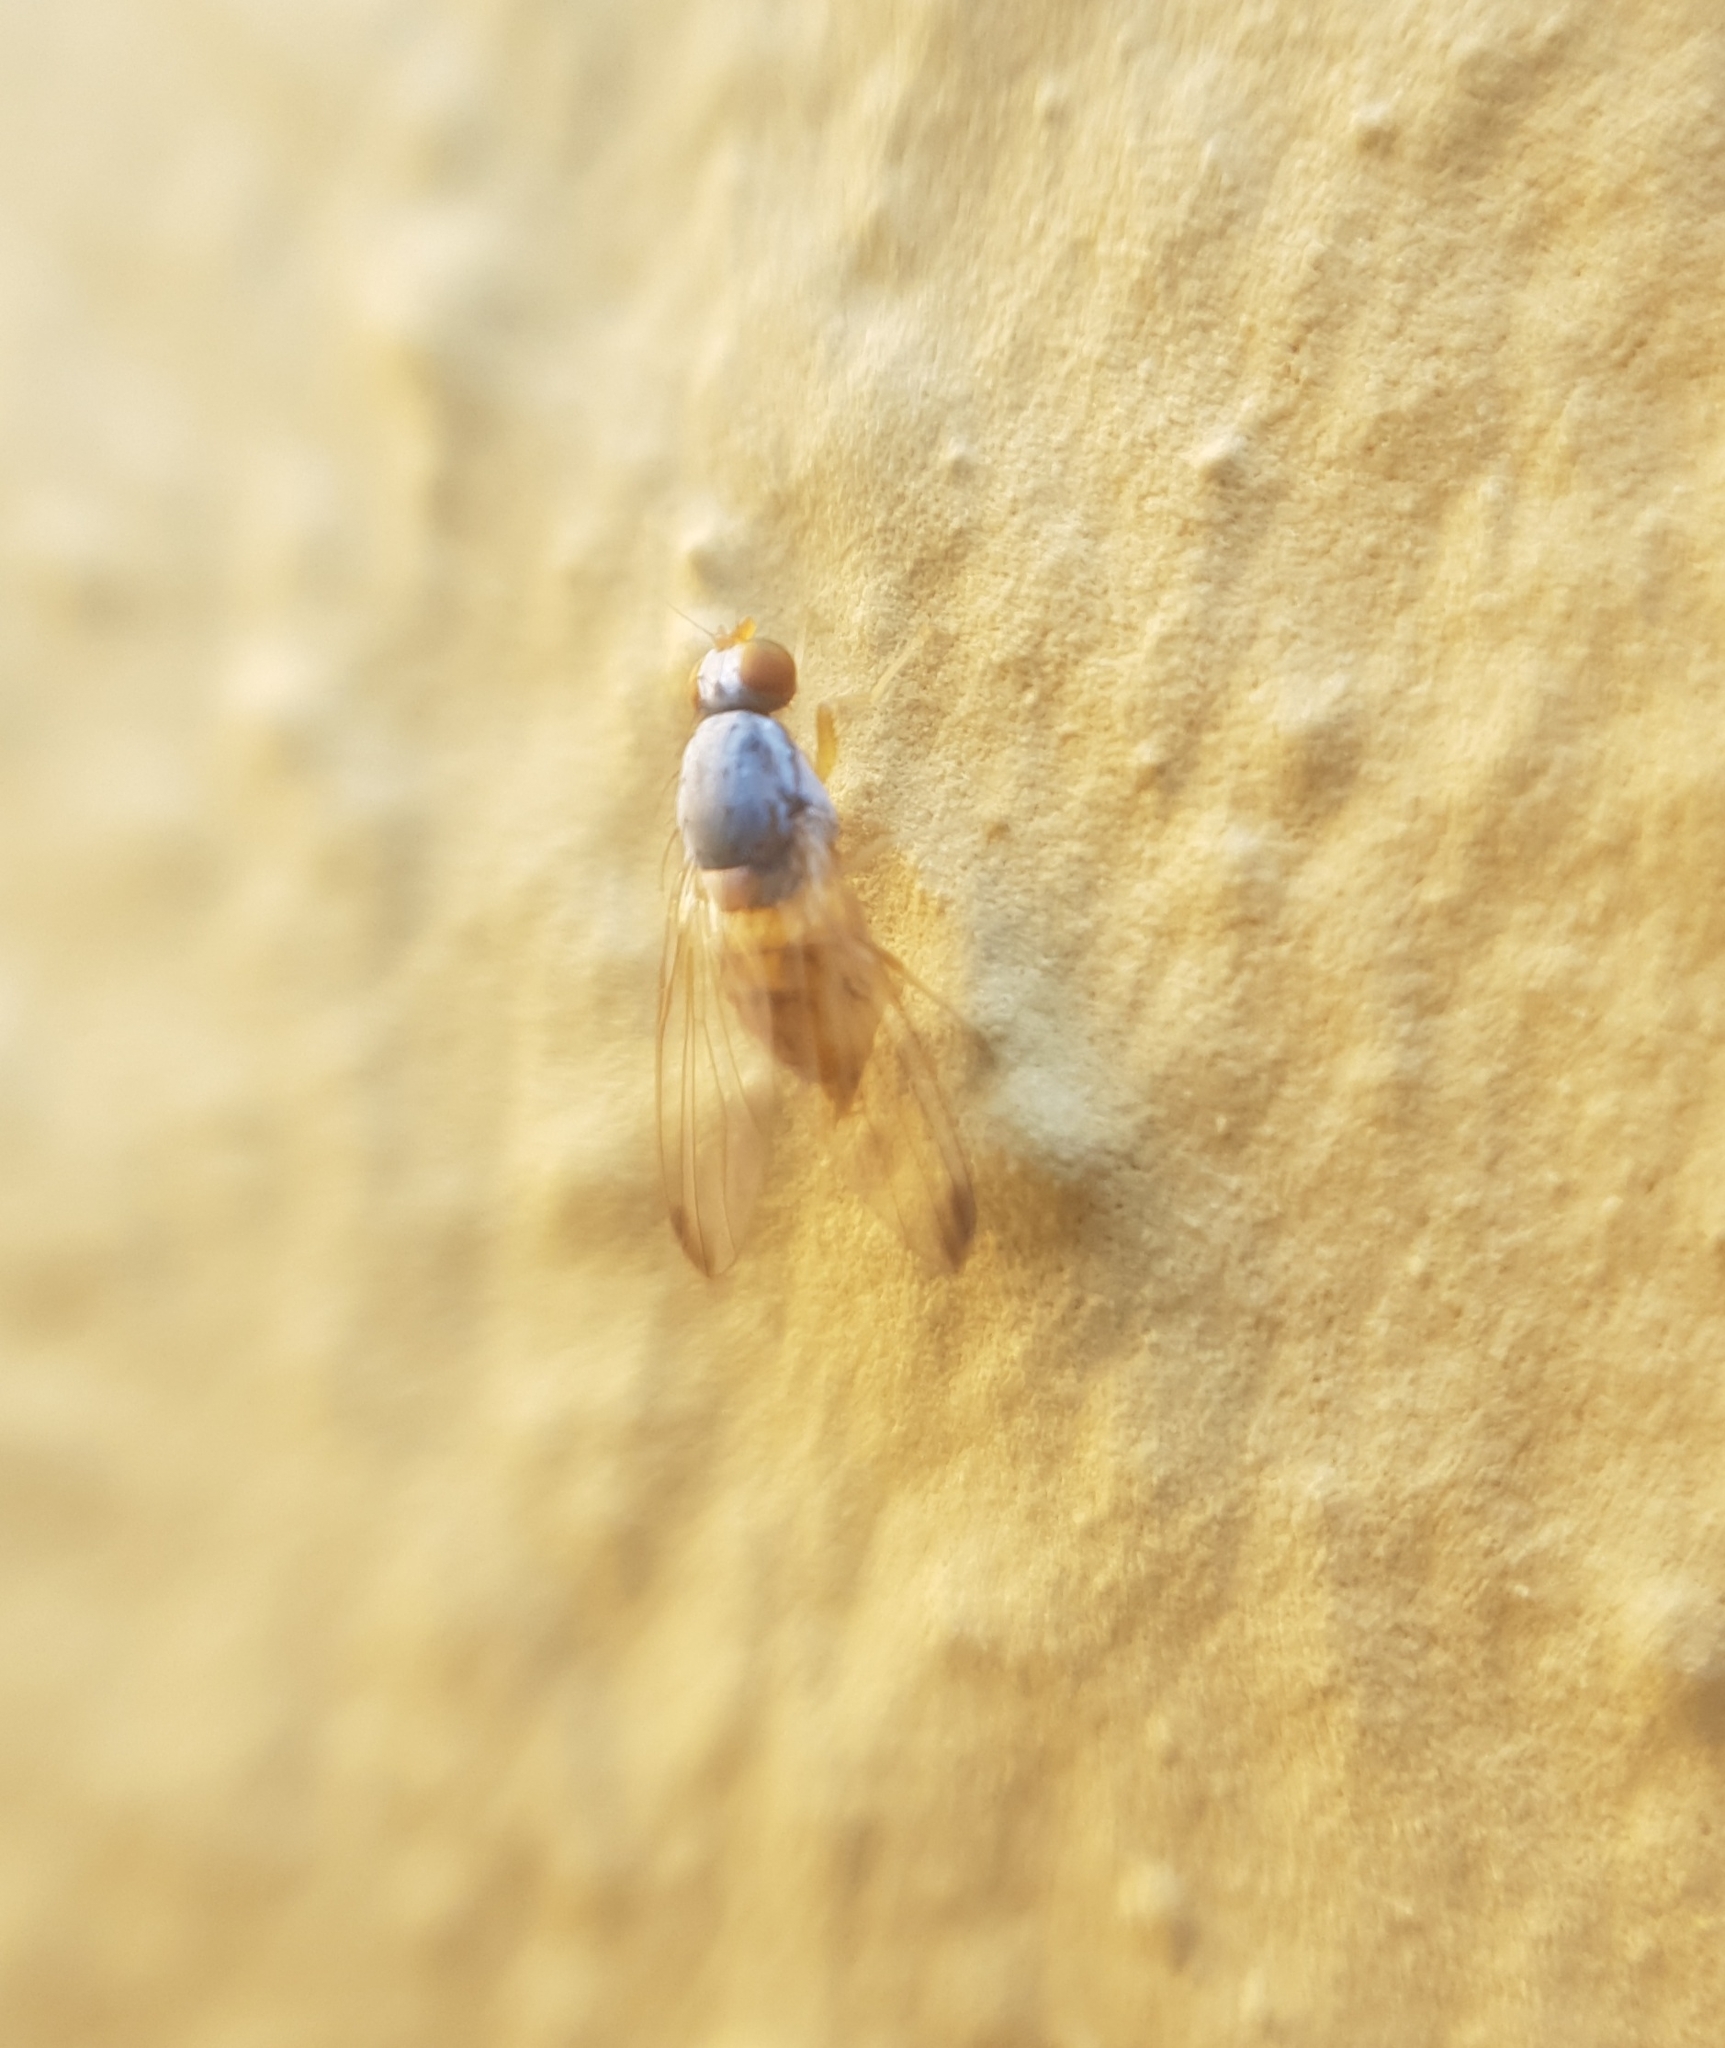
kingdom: Animalia
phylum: Arthropoda
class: Insecta
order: Diptera
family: Pallopteridae
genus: Palloptera
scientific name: Palloptera
